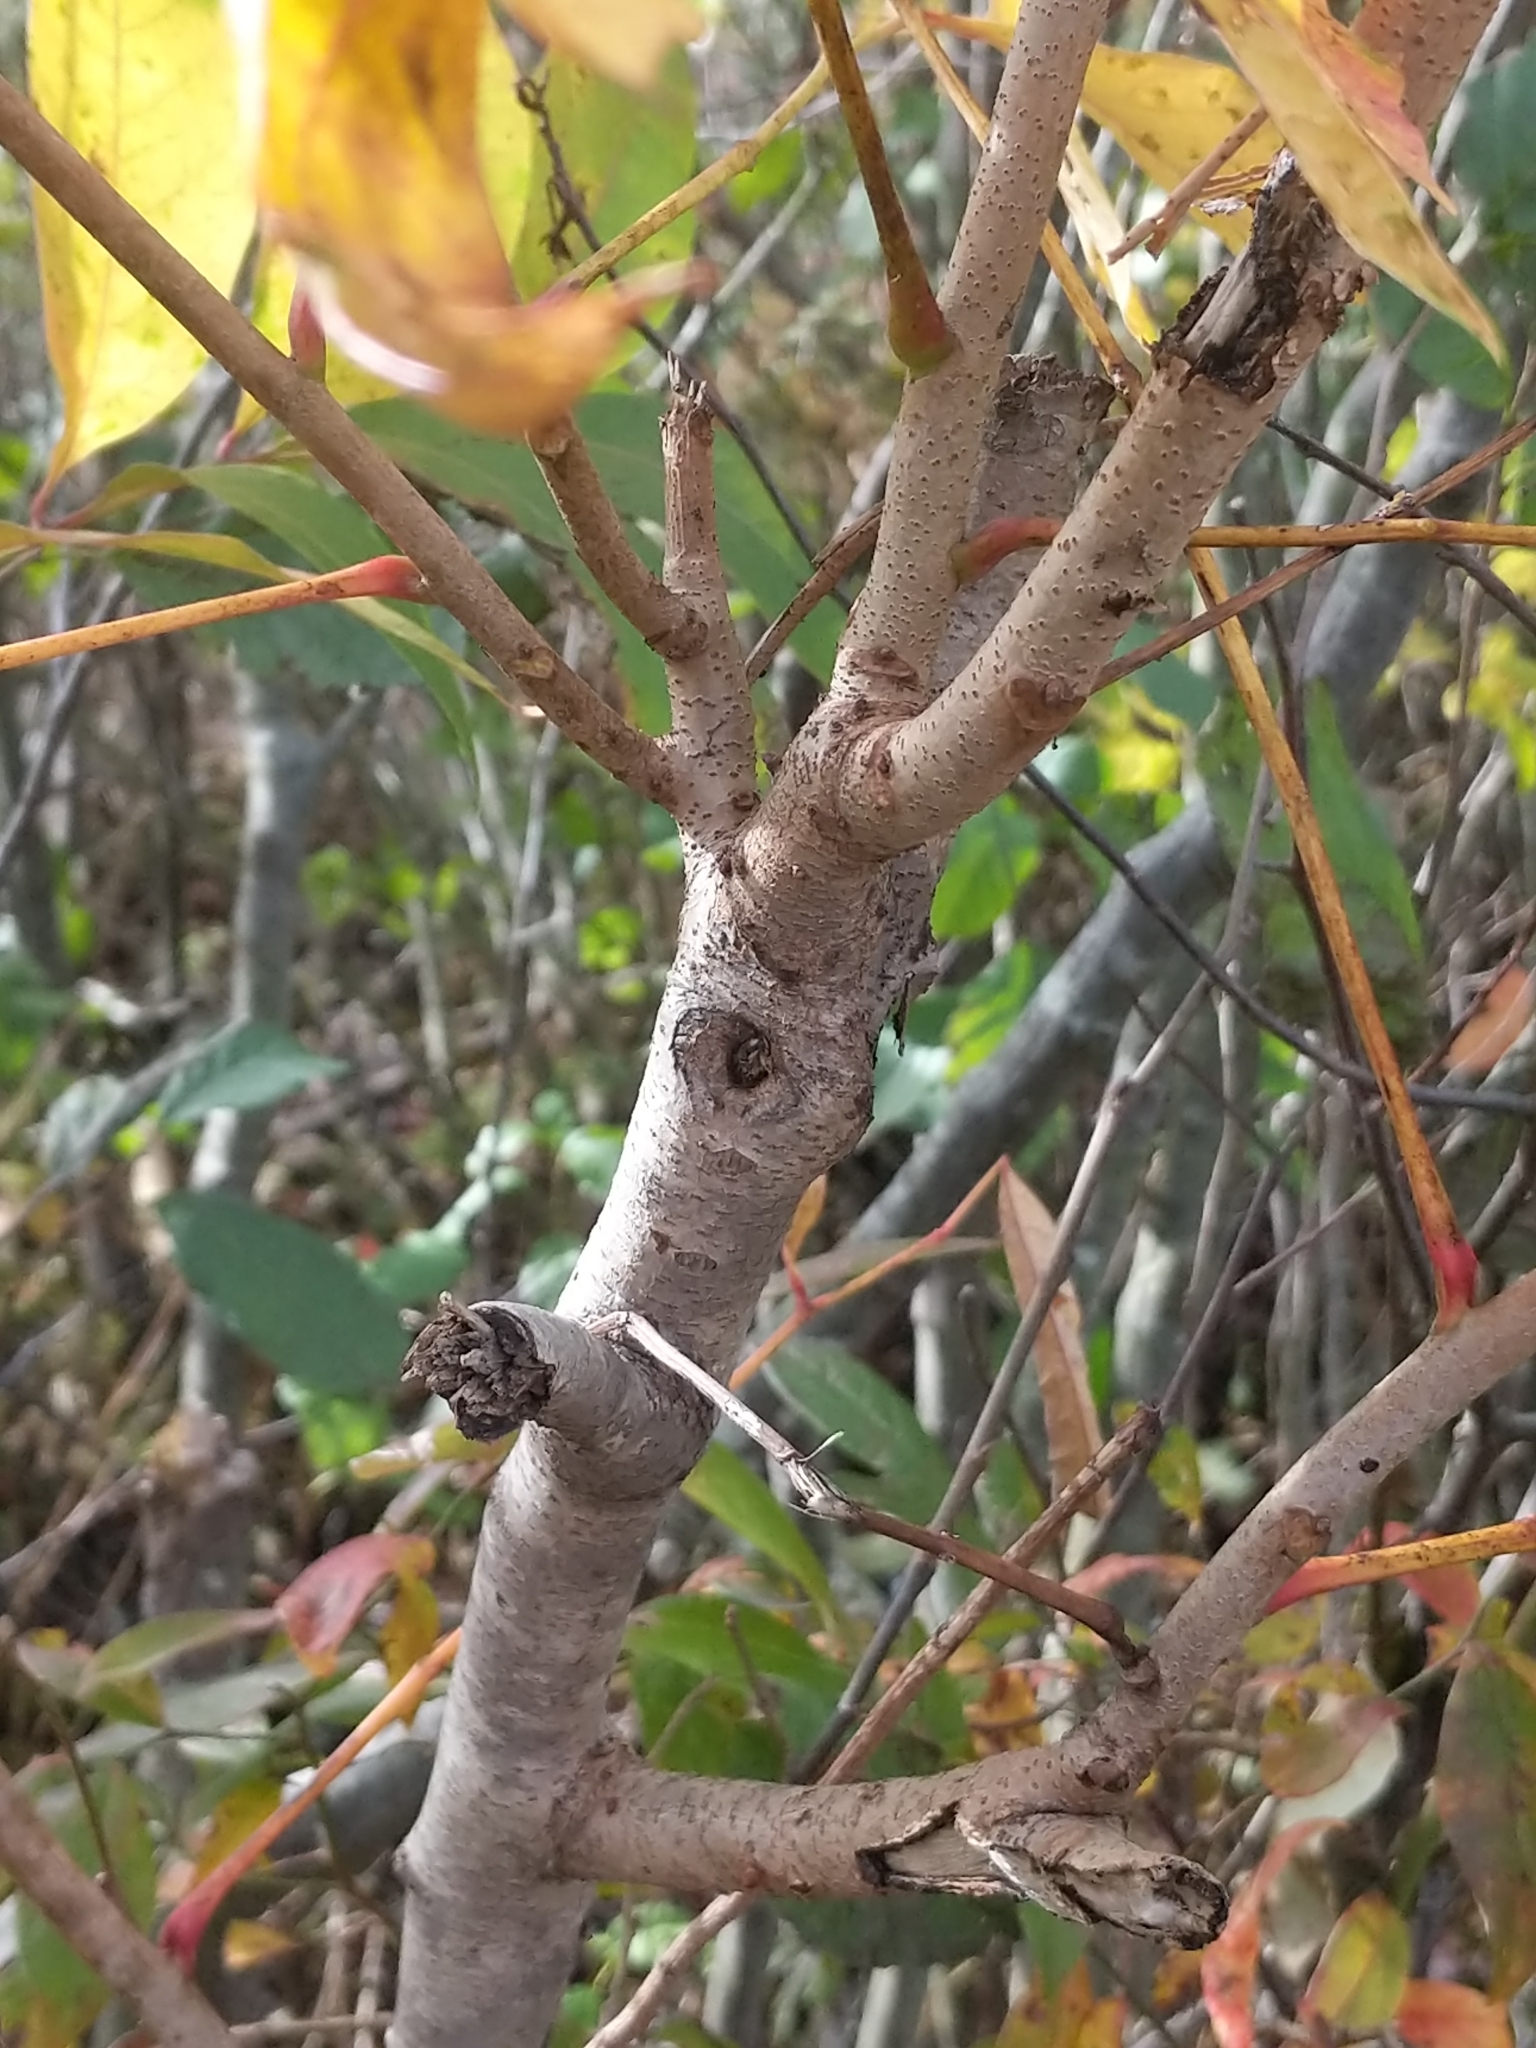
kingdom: Plantae
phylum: Tracheophyta
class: Magnoliopsida
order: Sapindales
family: Anacardiaceae
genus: Toxicodendron
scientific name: Toxicodendron vernix
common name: Poison sumac
